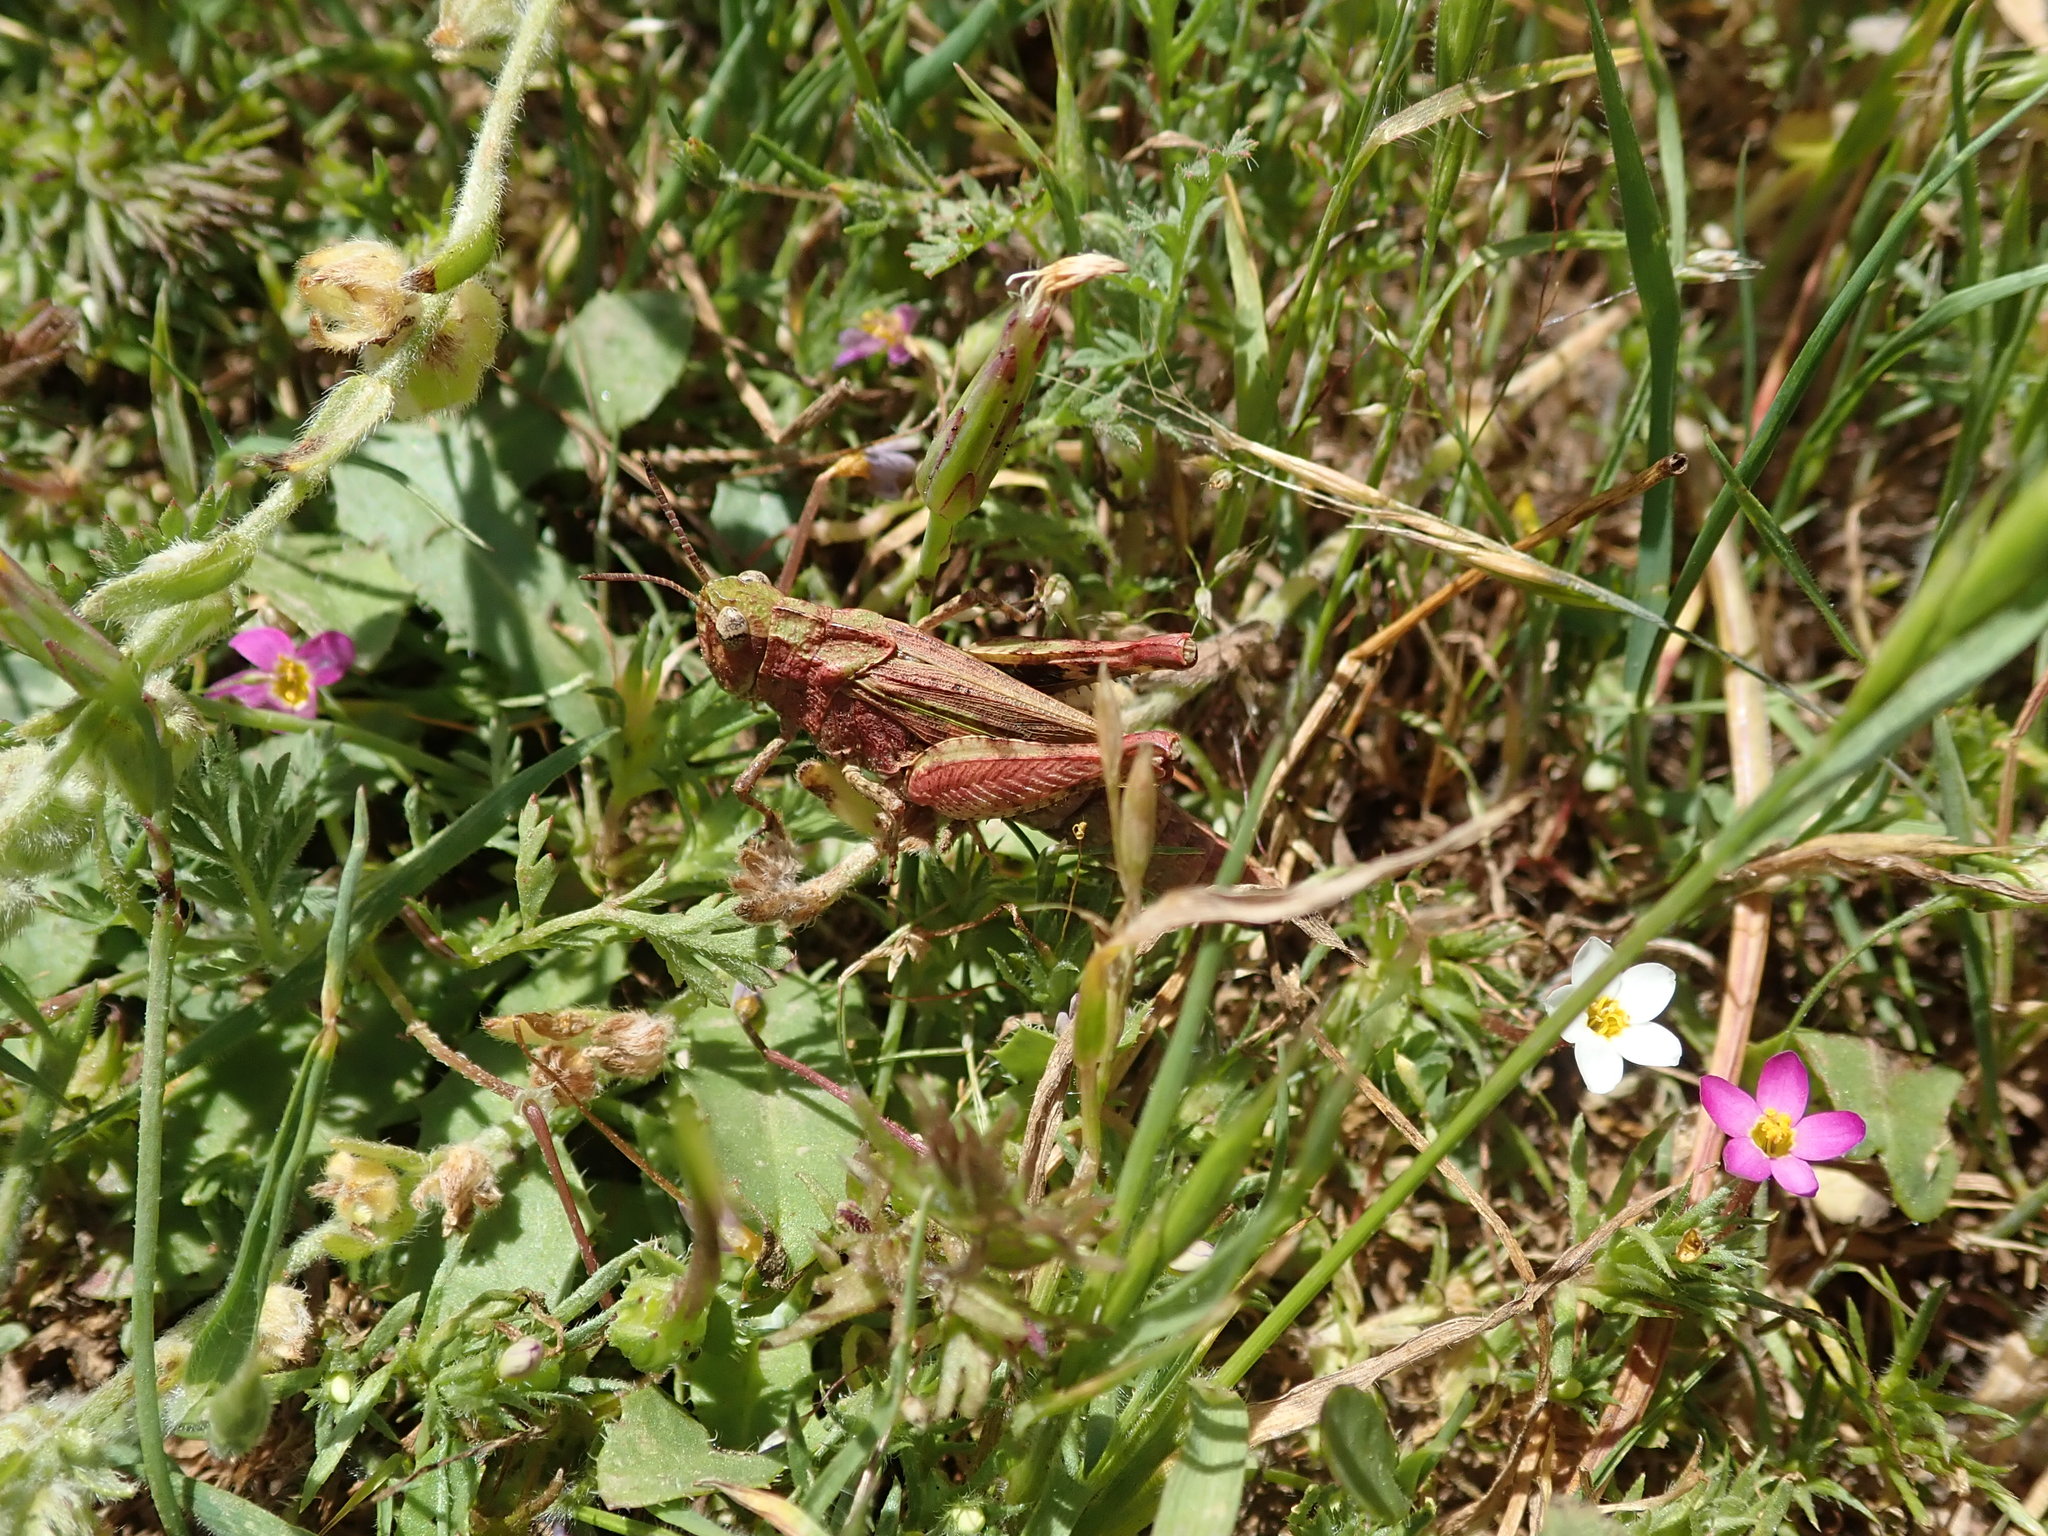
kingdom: Animalia
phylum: Arthropoda
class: Insecta
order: Orthoptera
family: Acrididae
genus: Chimarocephala
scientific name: Chimarocephala pacifica
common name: Painted meadow grasshopper
